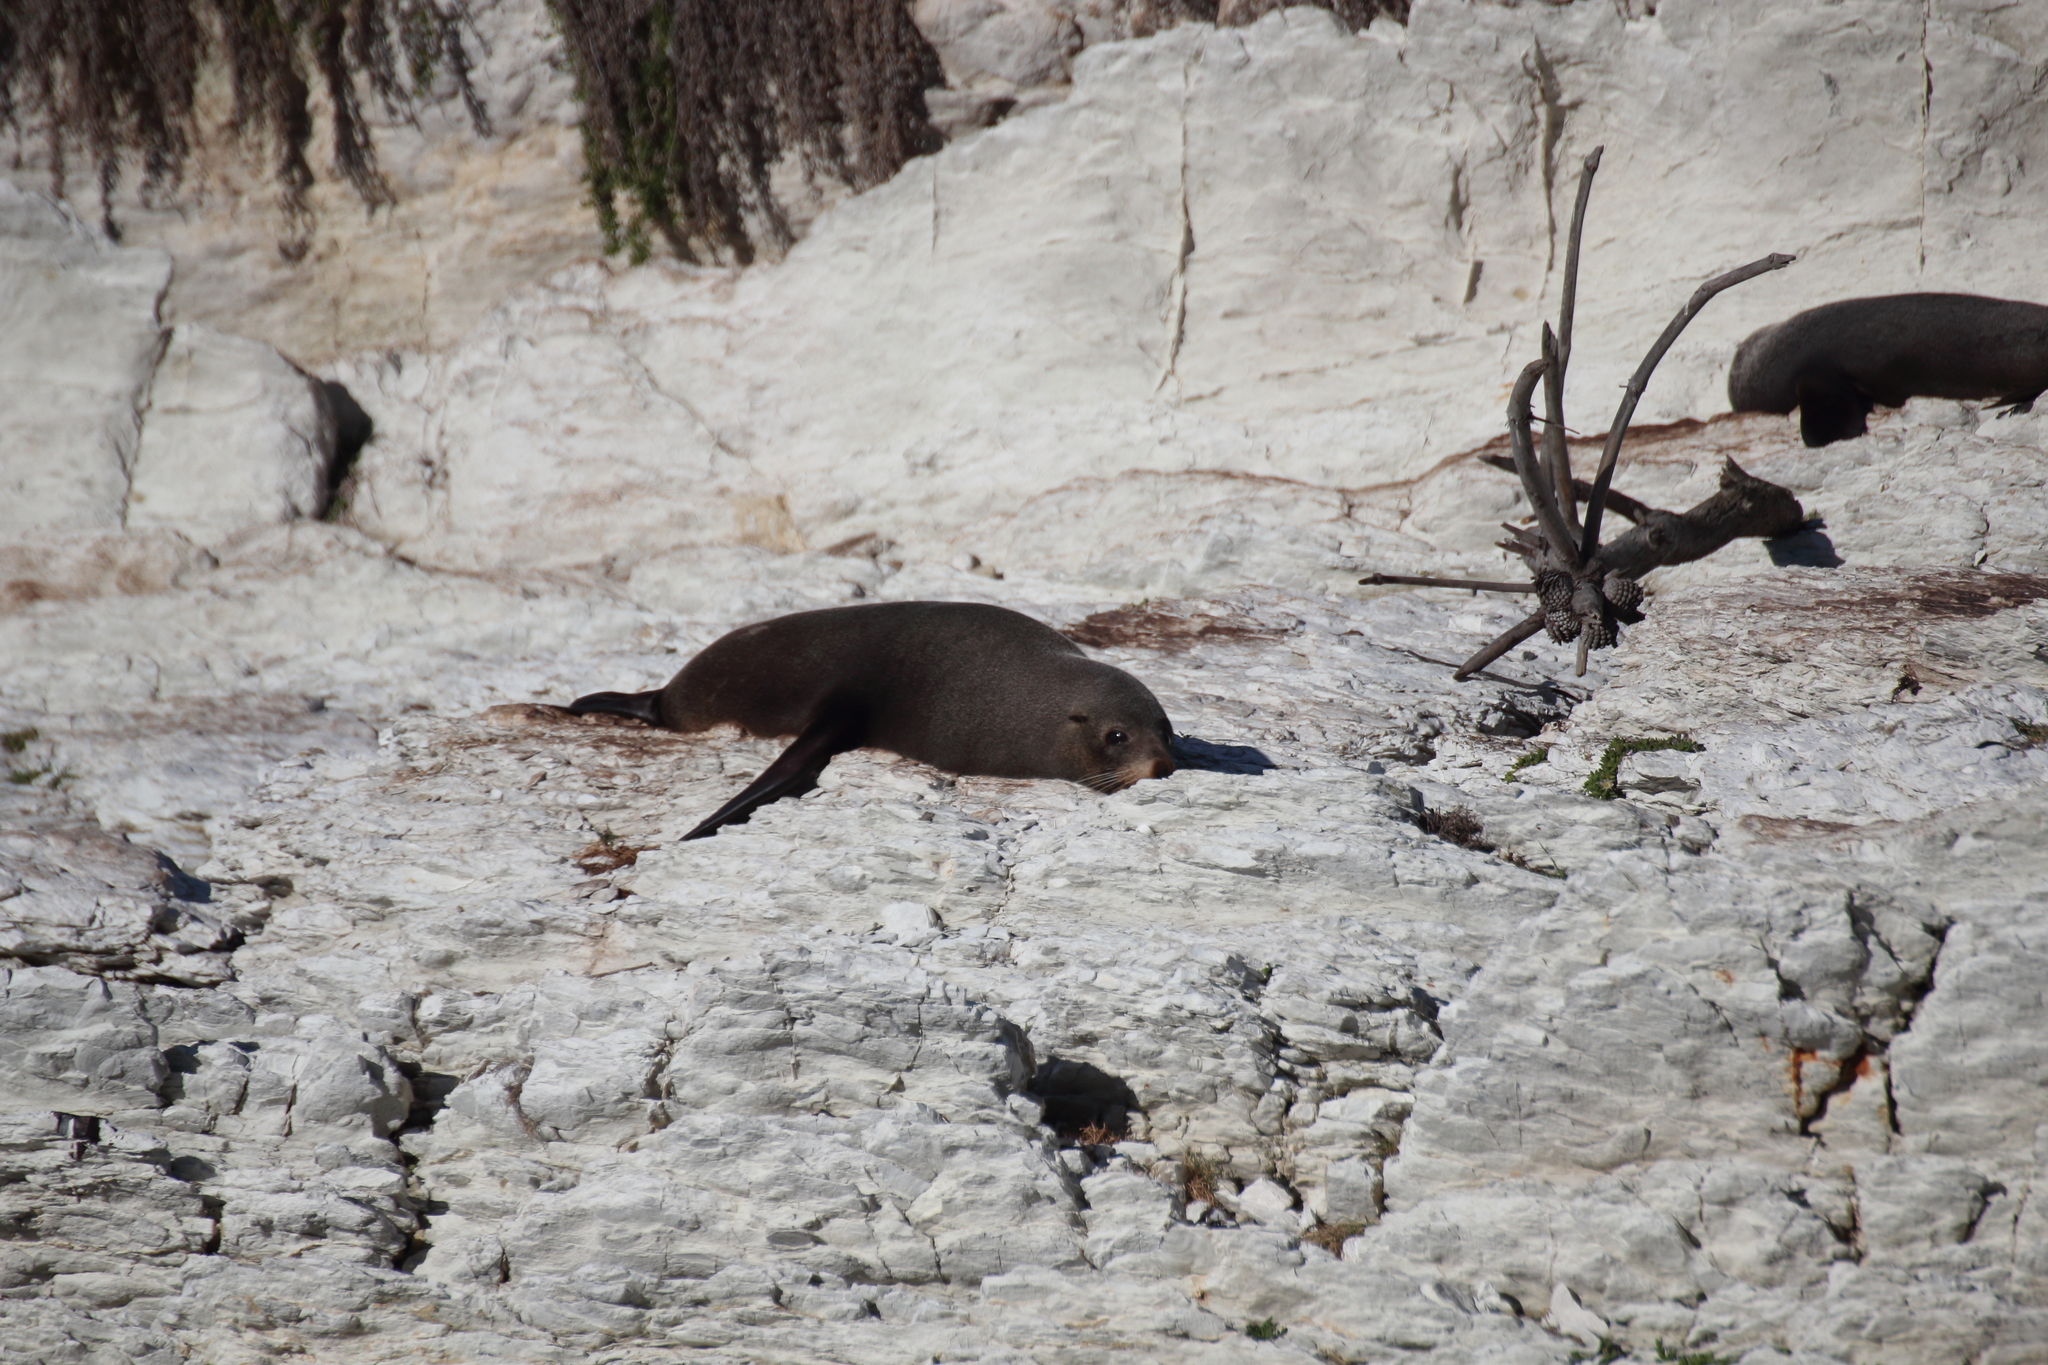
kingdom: Animalia
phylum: Chordata
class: Mammalia
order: Carnivora
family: Otariidae
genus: Arctocephalus
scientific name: Arctocephalus forsteri
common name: New zealand fur seal
